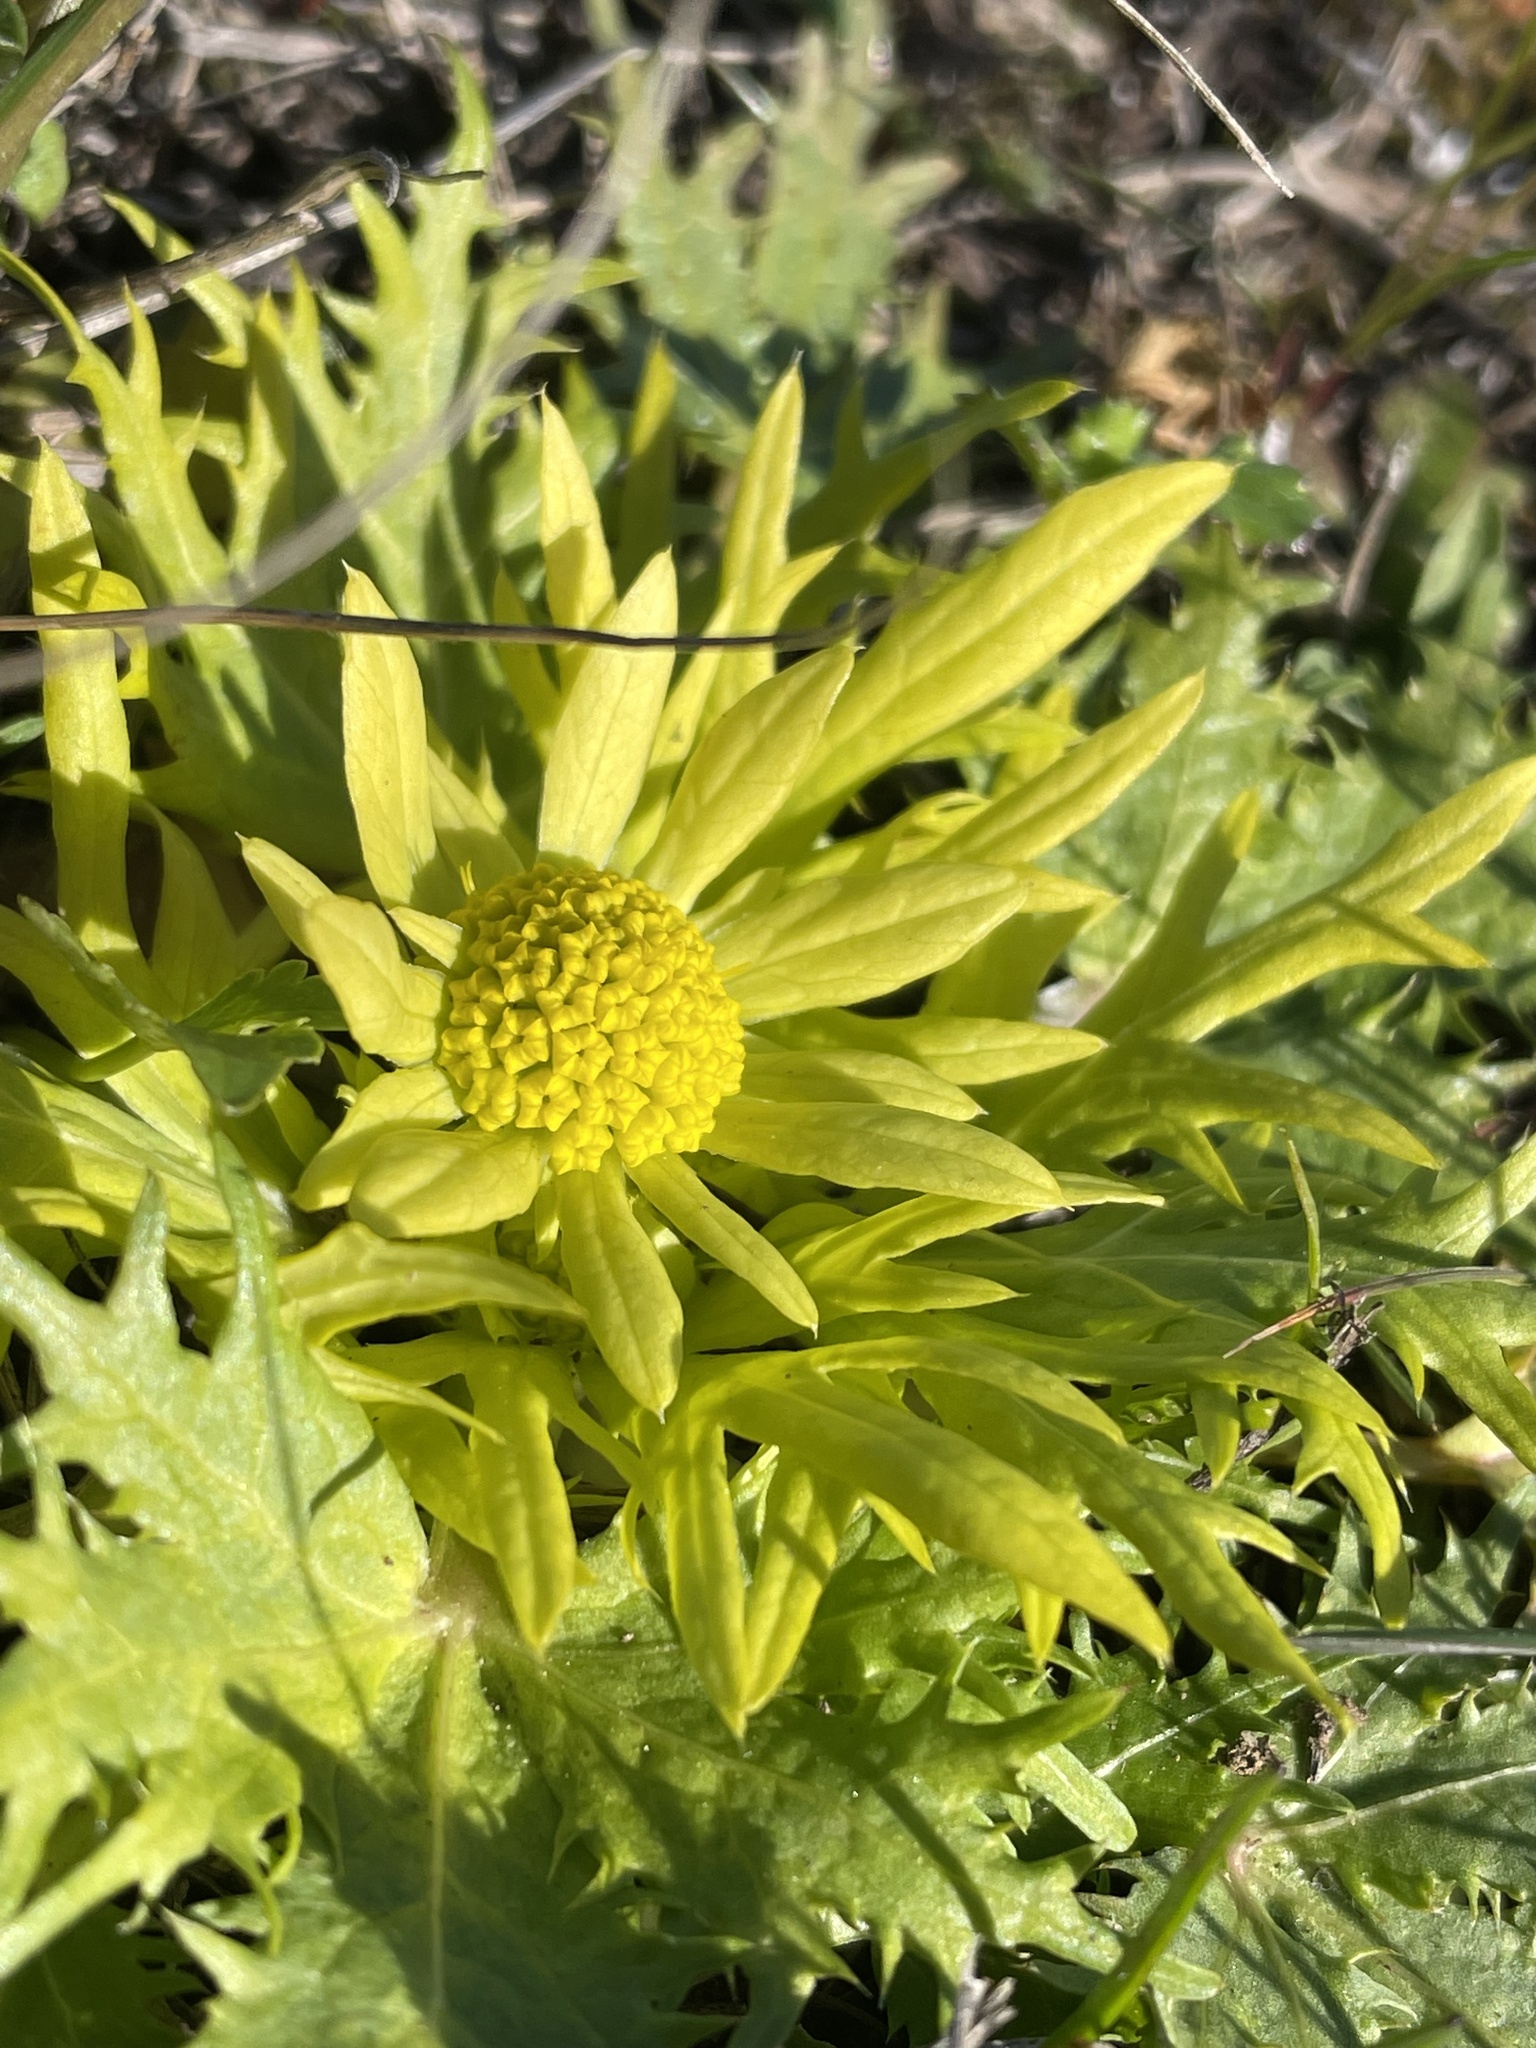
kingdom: Plantae
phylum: Tracheophyta
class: Magnoliopsida
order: Apiales
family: Apiaceae
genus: Sanicula
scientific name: Sanicula arctopoides
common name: Footsteps-of-spring
